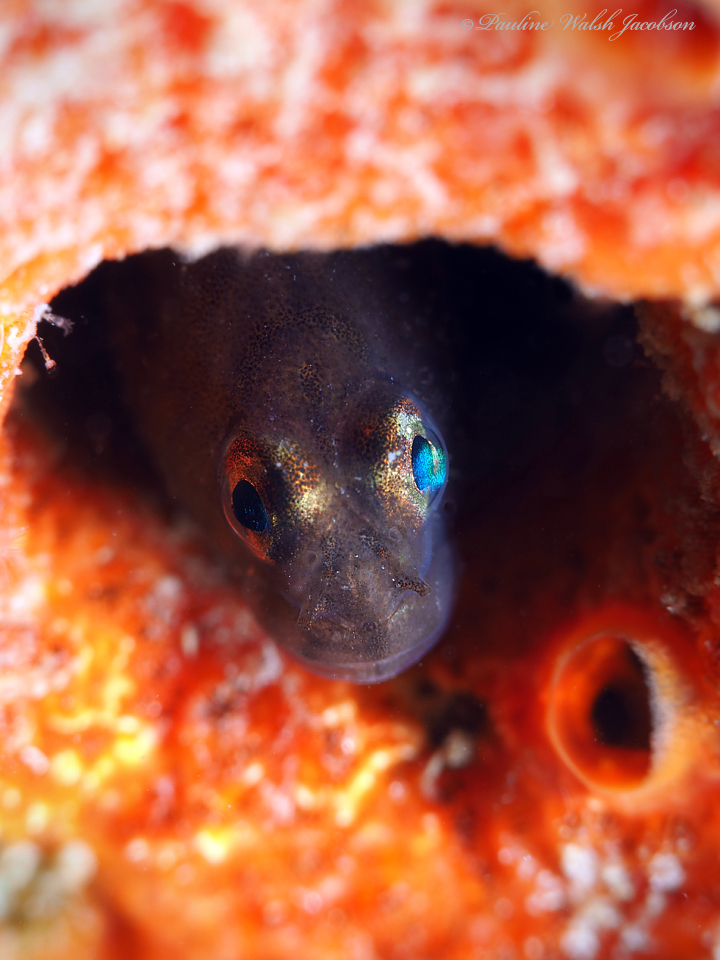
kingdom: Animalia
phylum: Chordata
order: Perciformes
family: Gobiidae
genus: Tigrigobius
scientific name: Tigrigobius macrodon
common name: Tiger goby
